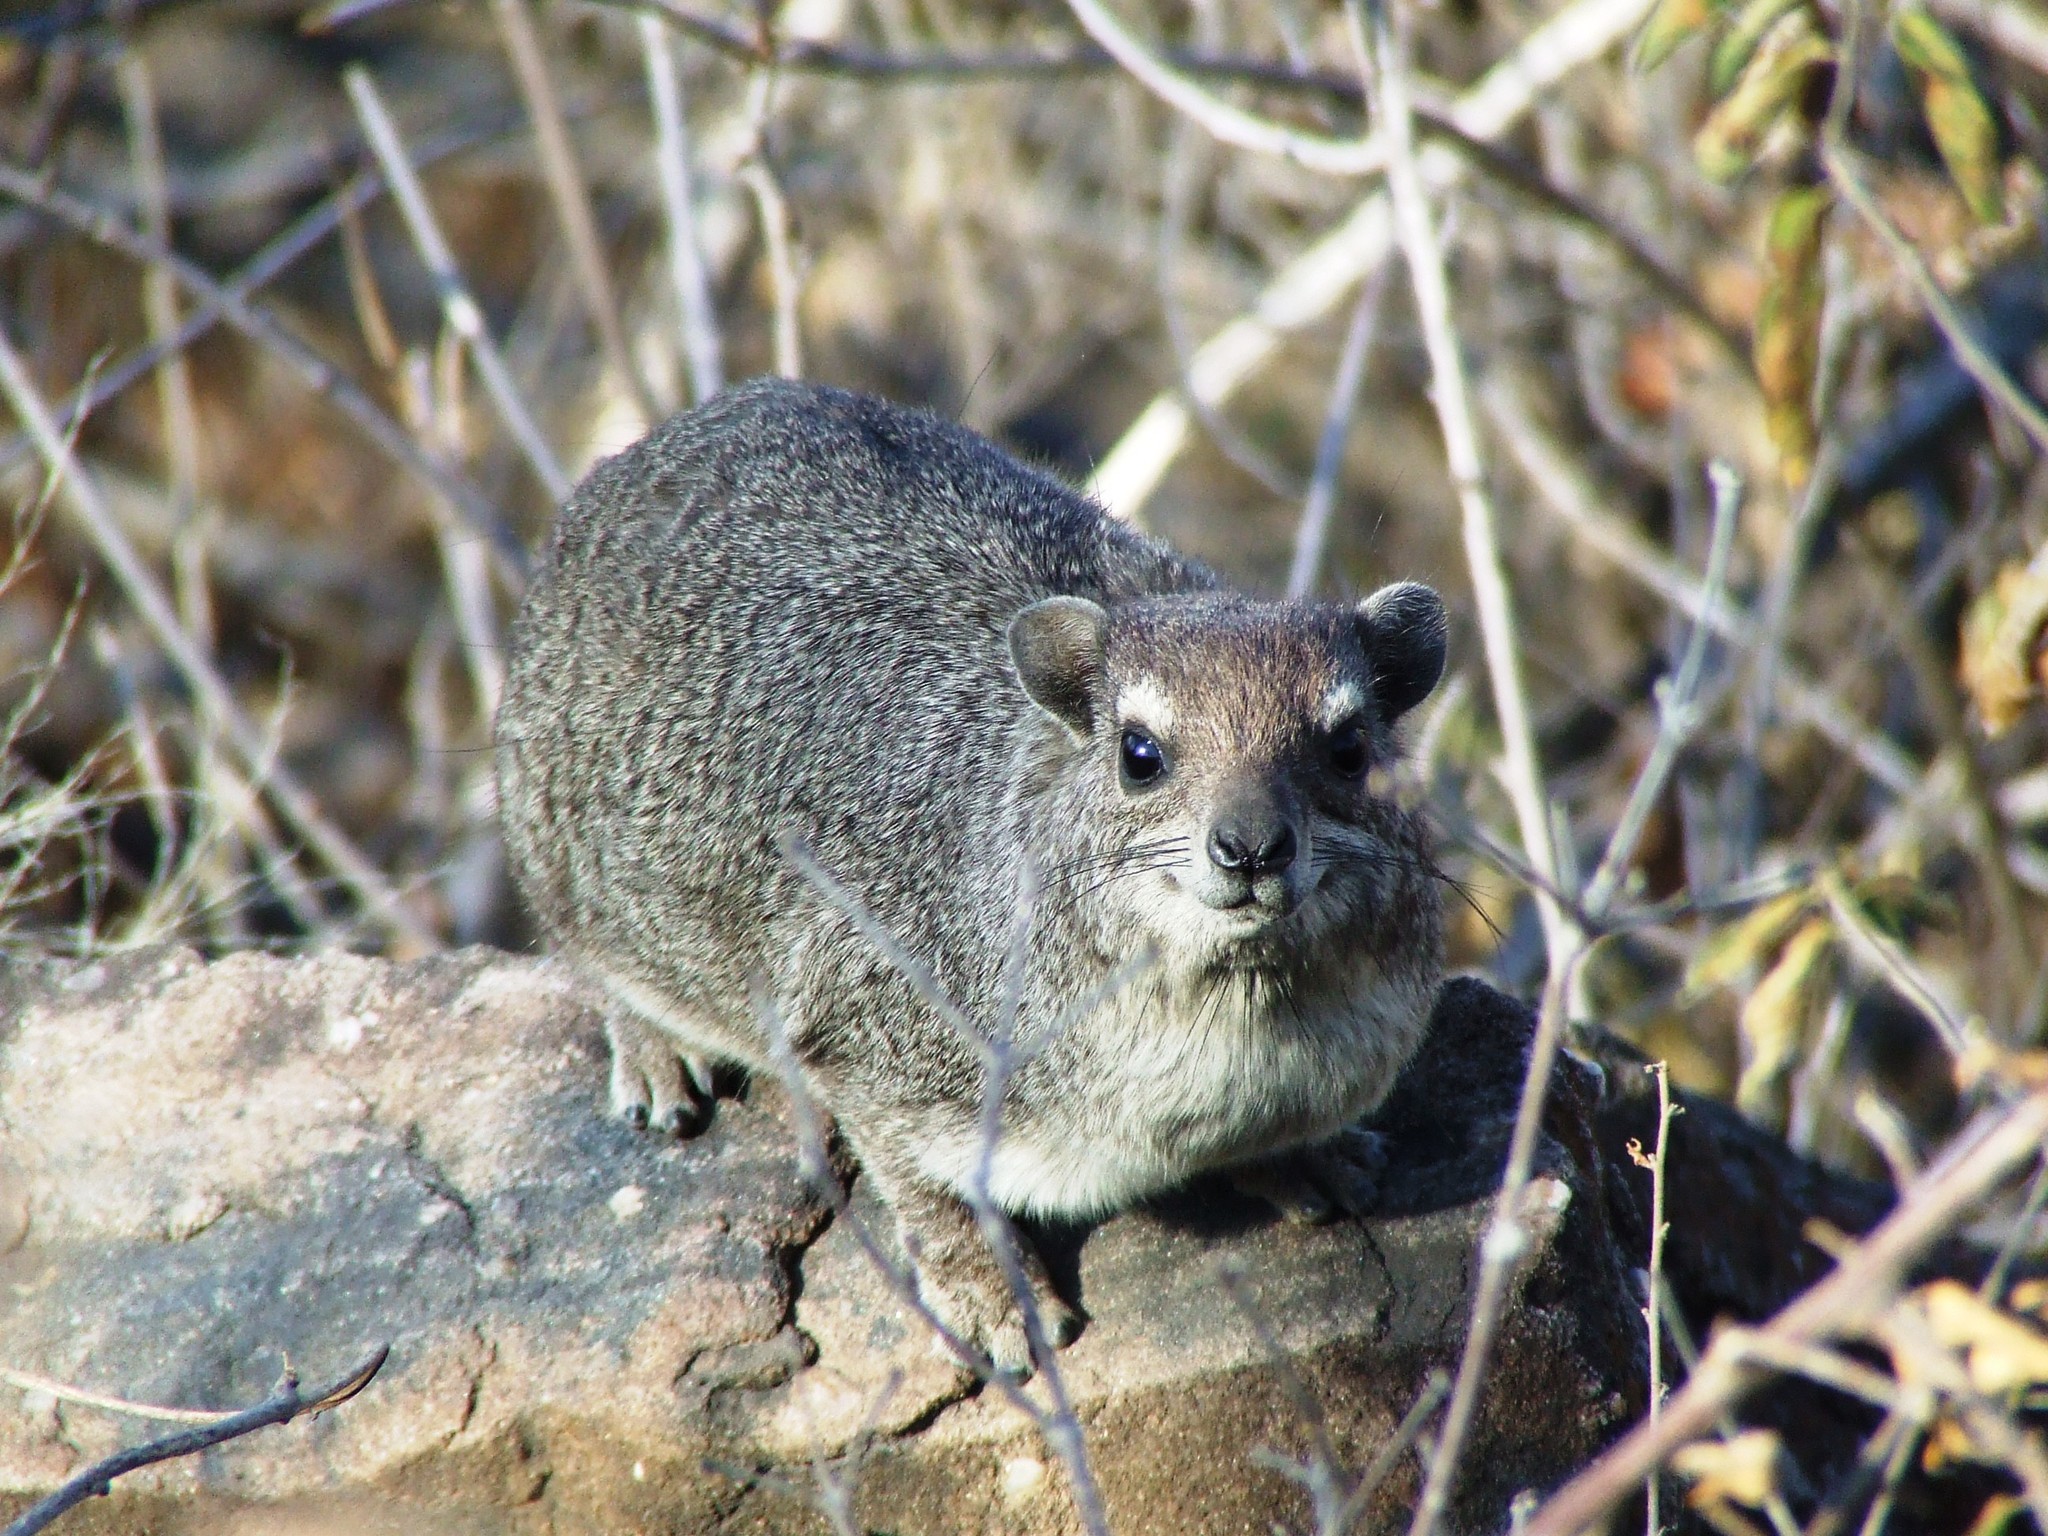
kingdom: Animalia
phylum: Chordata
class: Mammalia
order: Hyracoidea
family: Procaviidae
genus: Heterohyrax
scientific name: Heterohyrax brucei
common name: Bush hyrax
